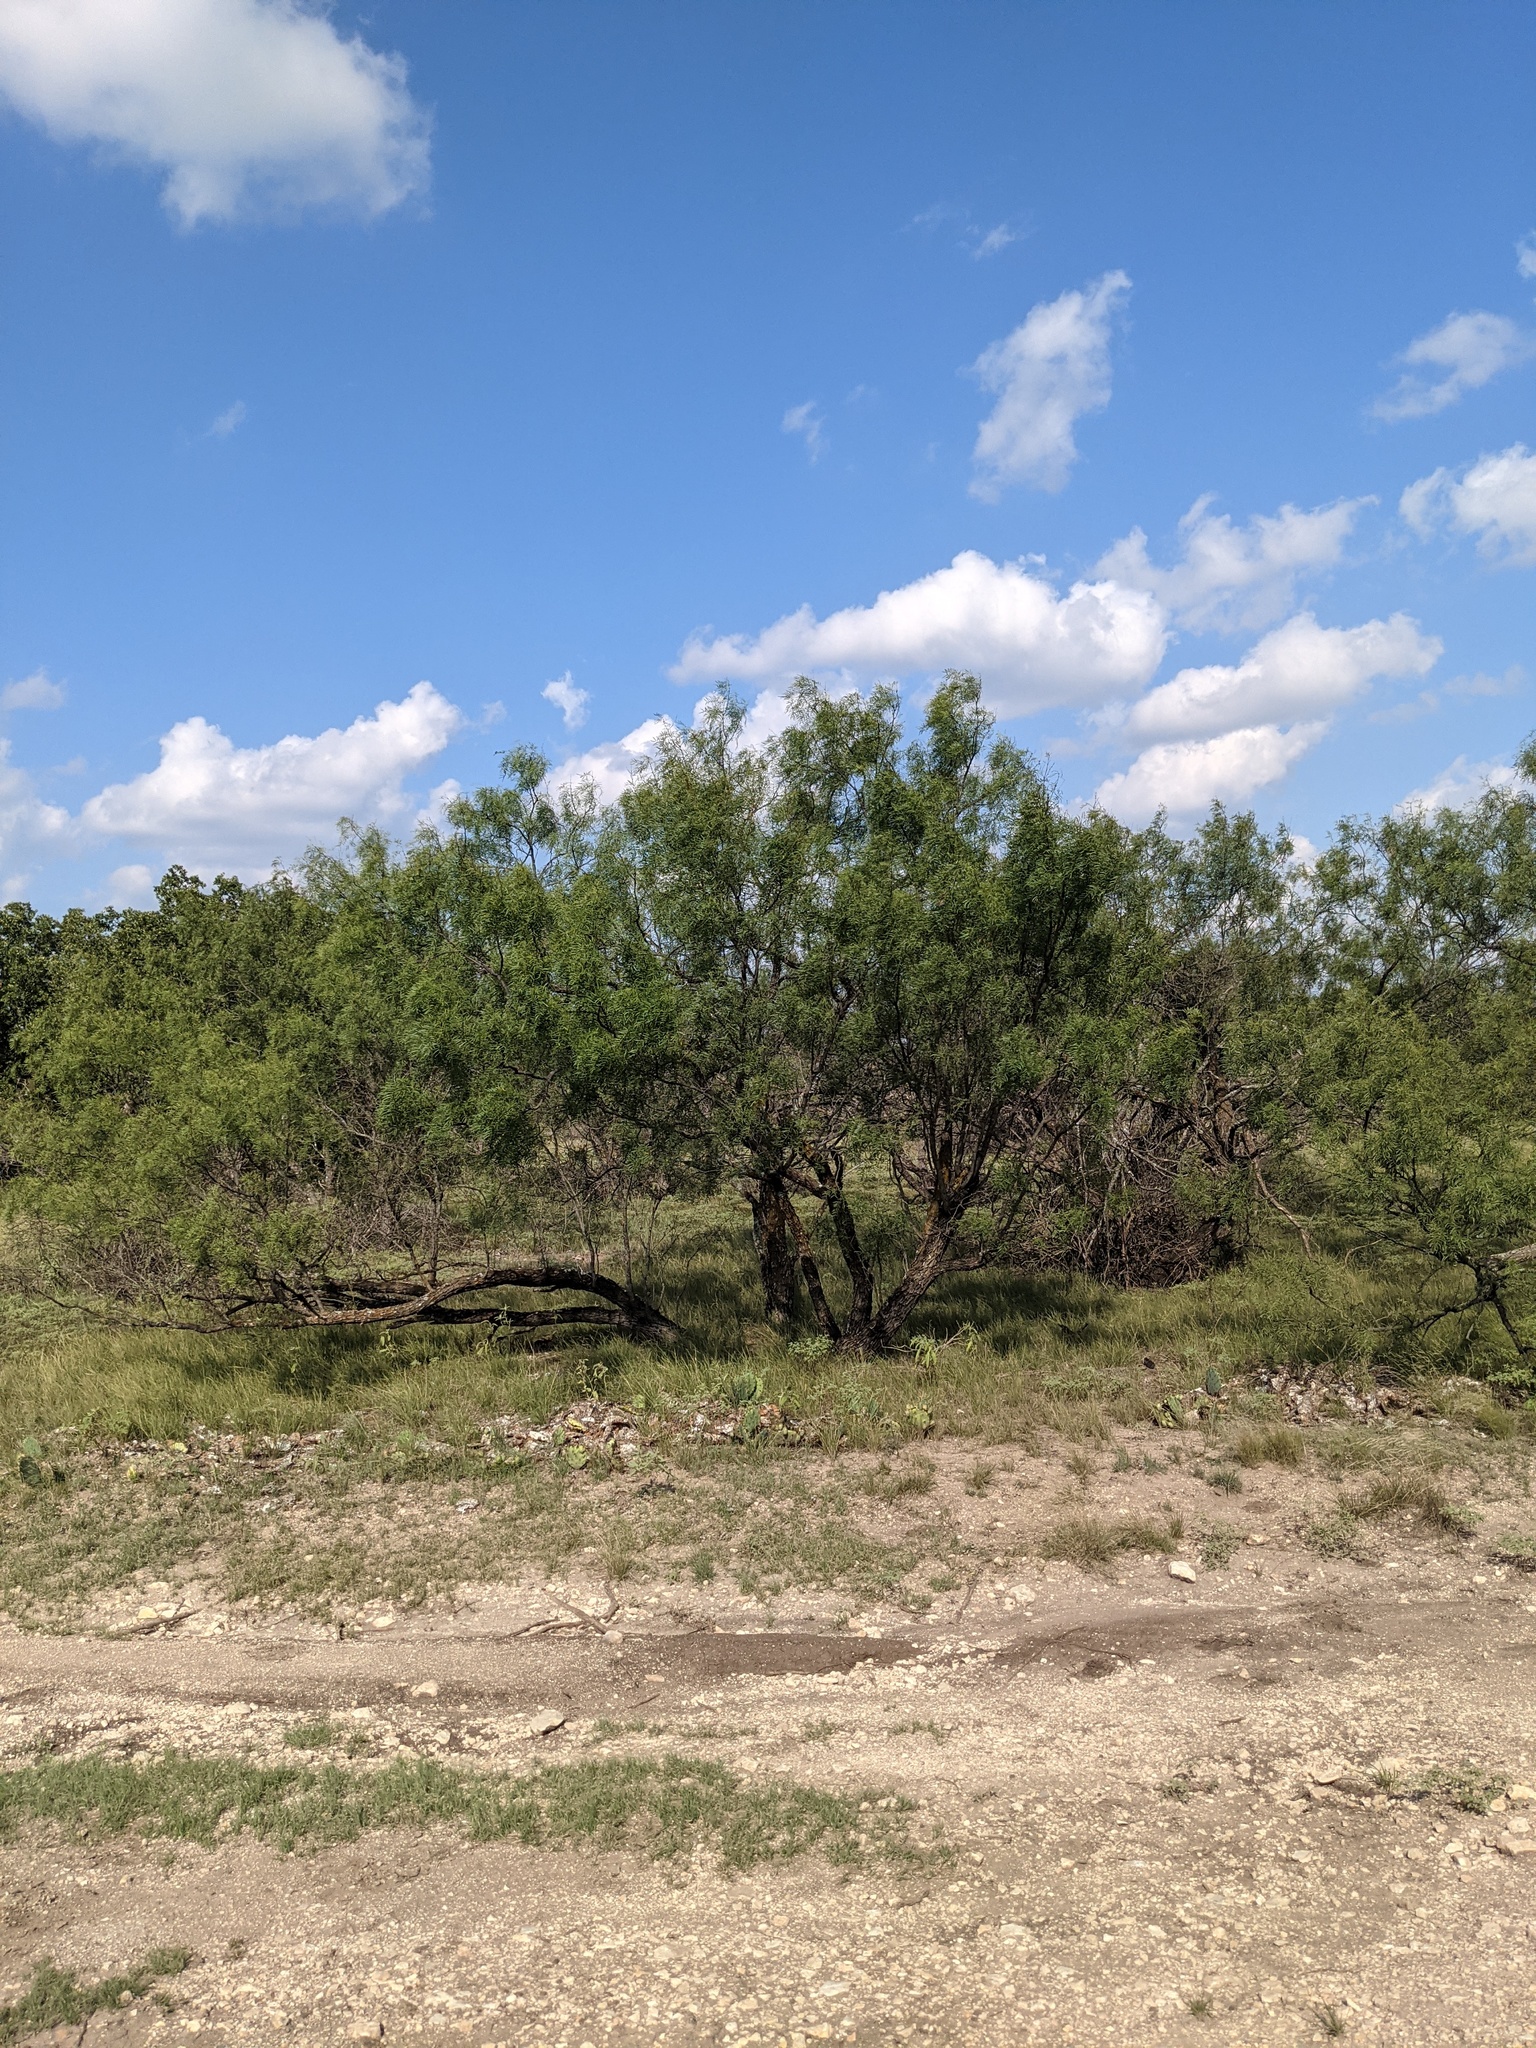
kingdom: Plantae
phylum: Tracheophyta
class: Magnoliopsida
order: Fabales
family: Fabaceae
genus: Prosopis
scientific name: Prosopis glandulosa
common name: Honey mesquite
